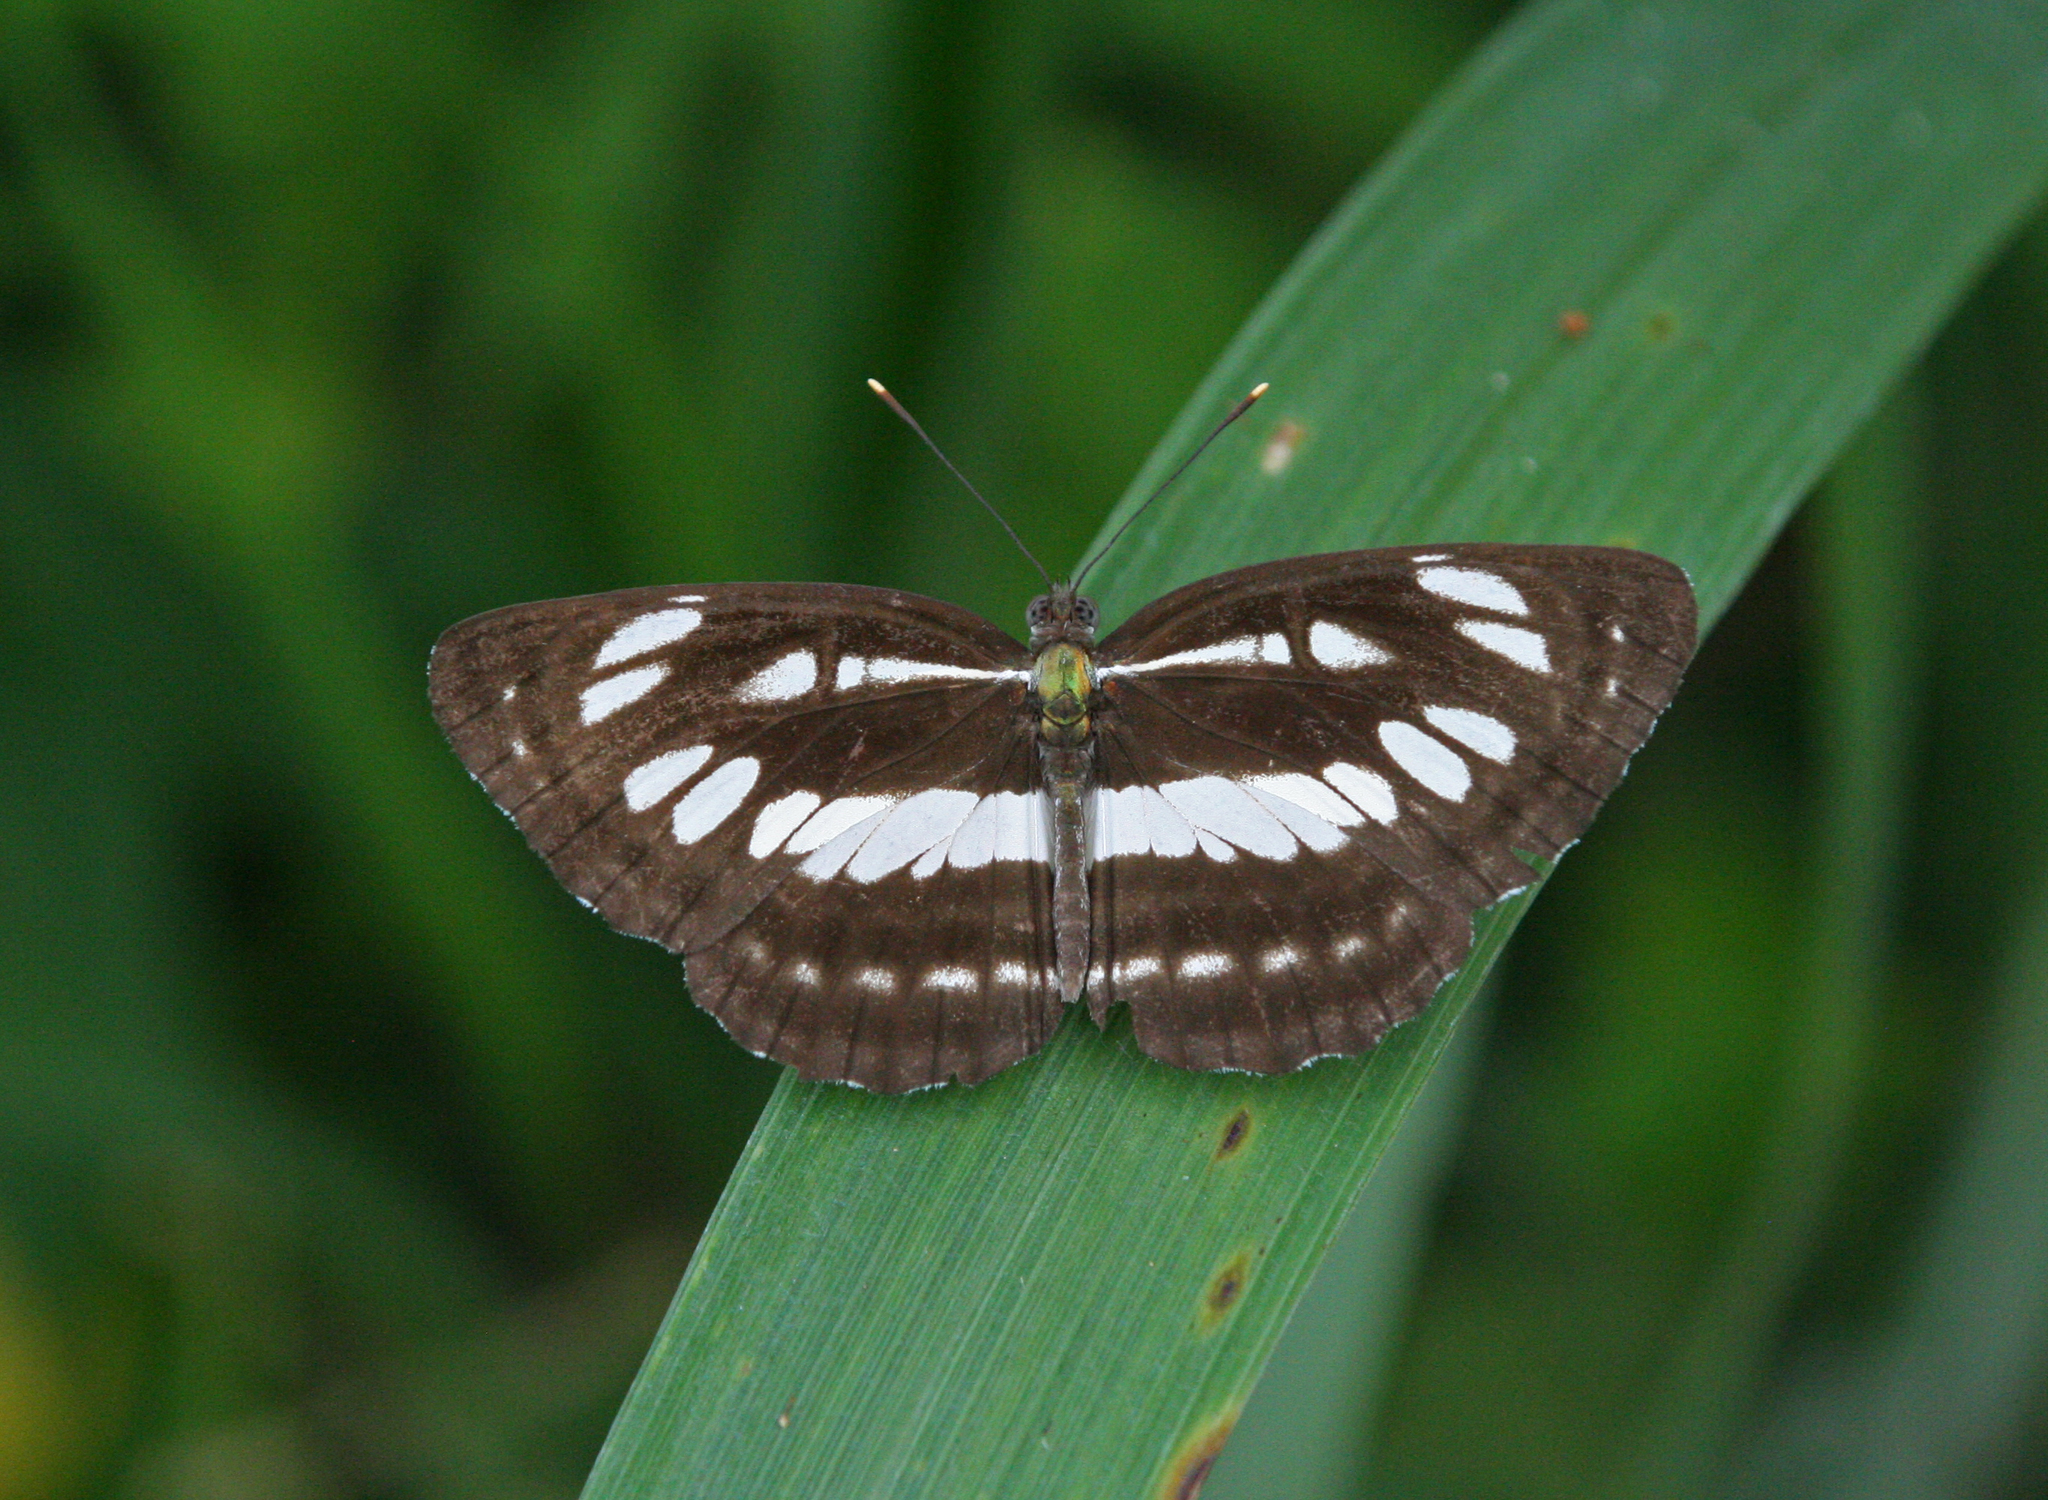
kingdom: Animalia
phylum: Arthropoda
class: Insecta
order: Lepidoptera
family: Nymphalidae
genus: Neptis
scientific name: Neptis hylas
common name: Common sailer
